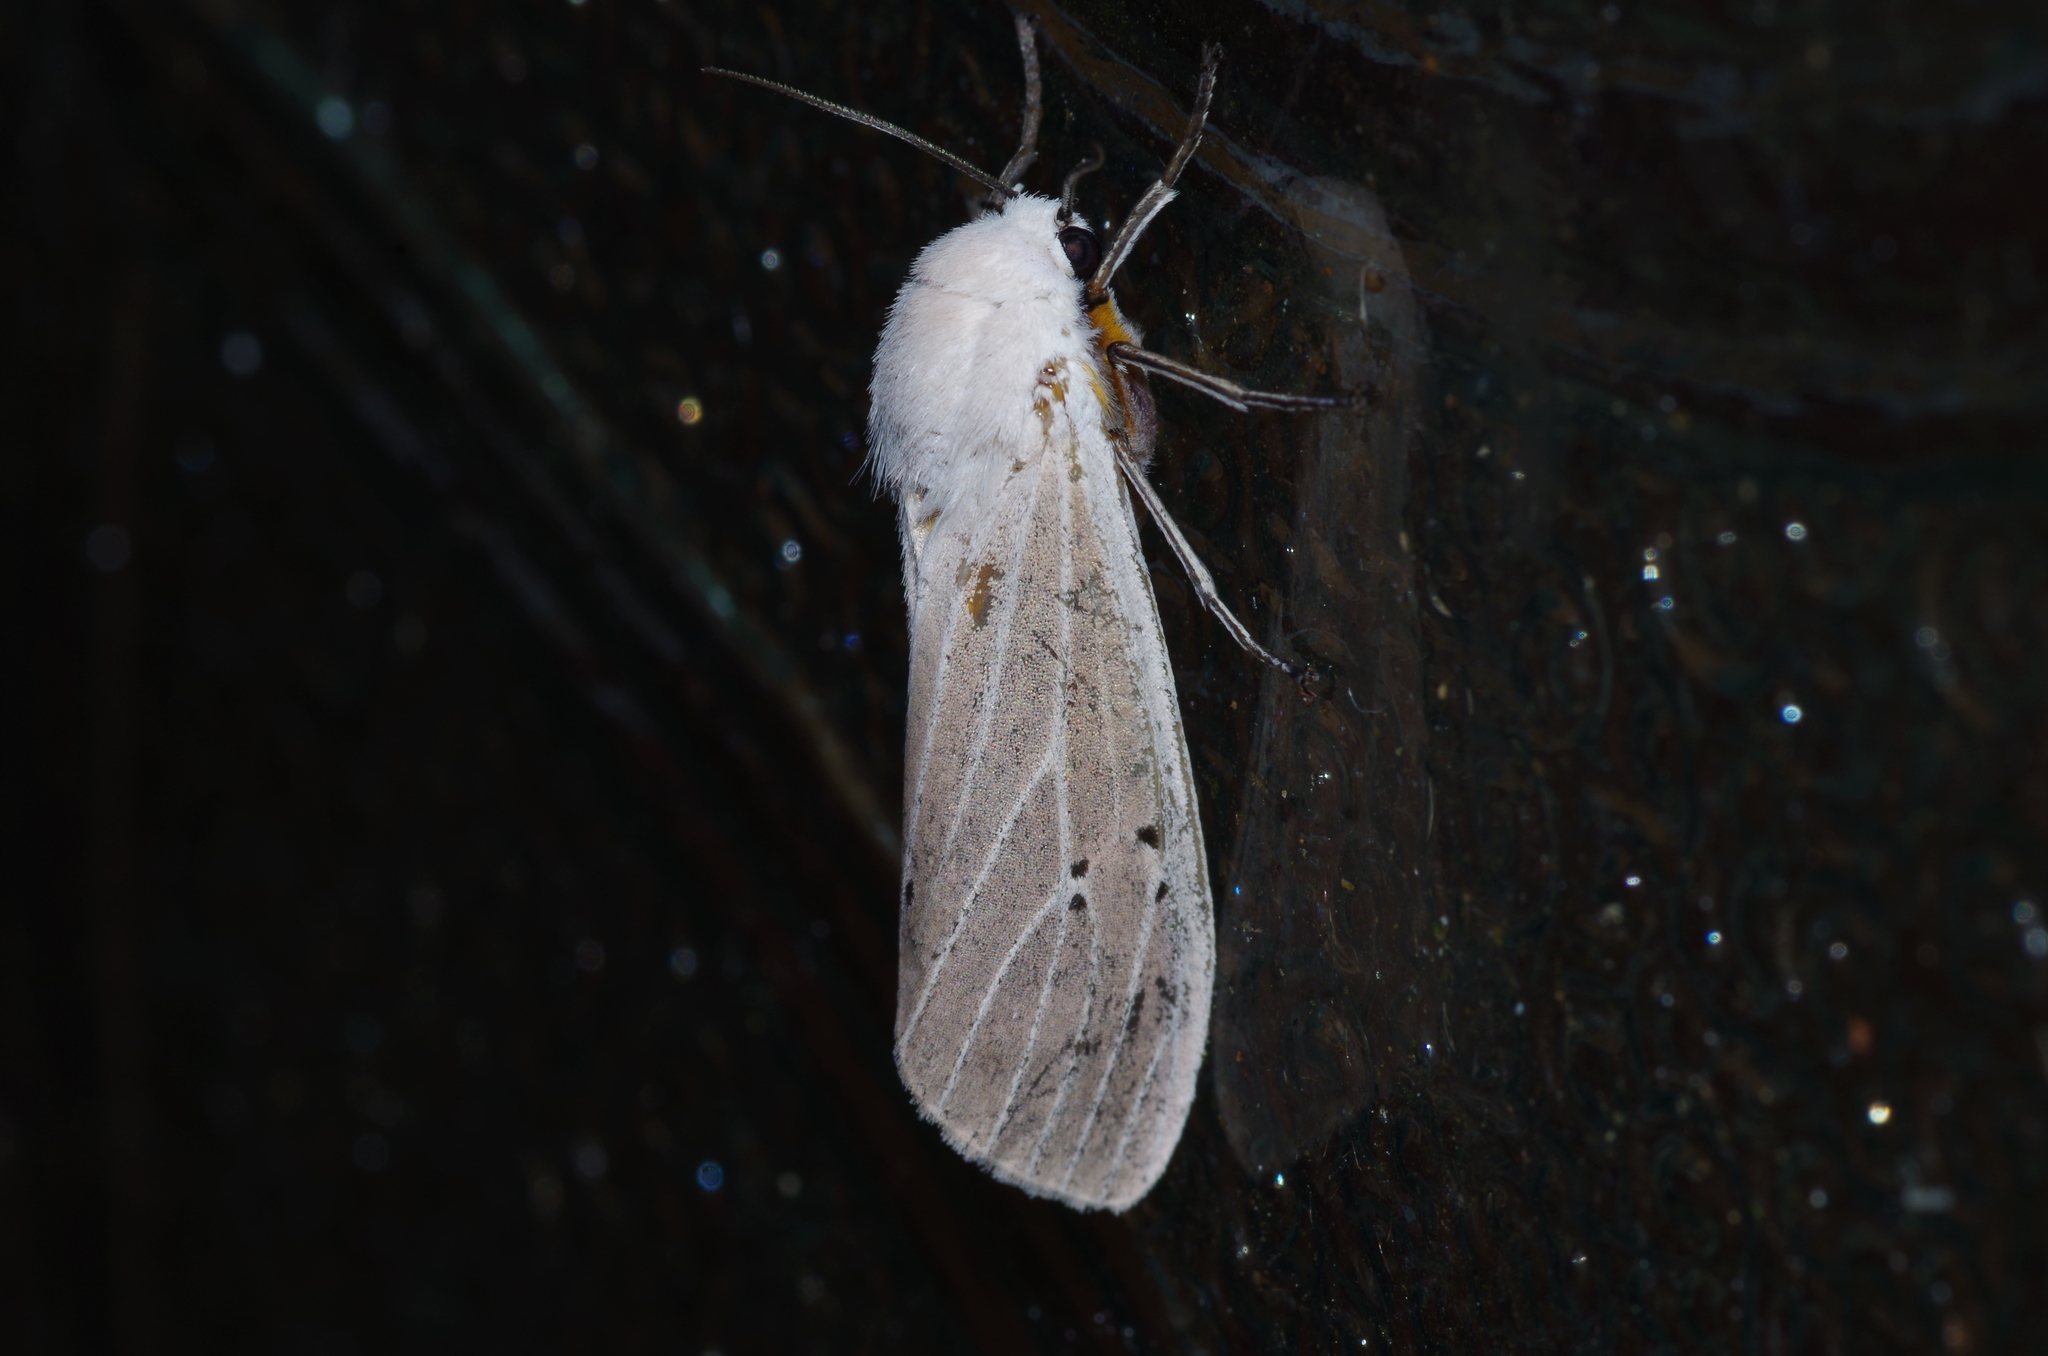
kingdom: Animalia
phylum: Arthropoda
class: Insecta
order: Lepidoptera
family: Erebidae
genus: Creatonotos
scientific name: Creatonotos transiens
